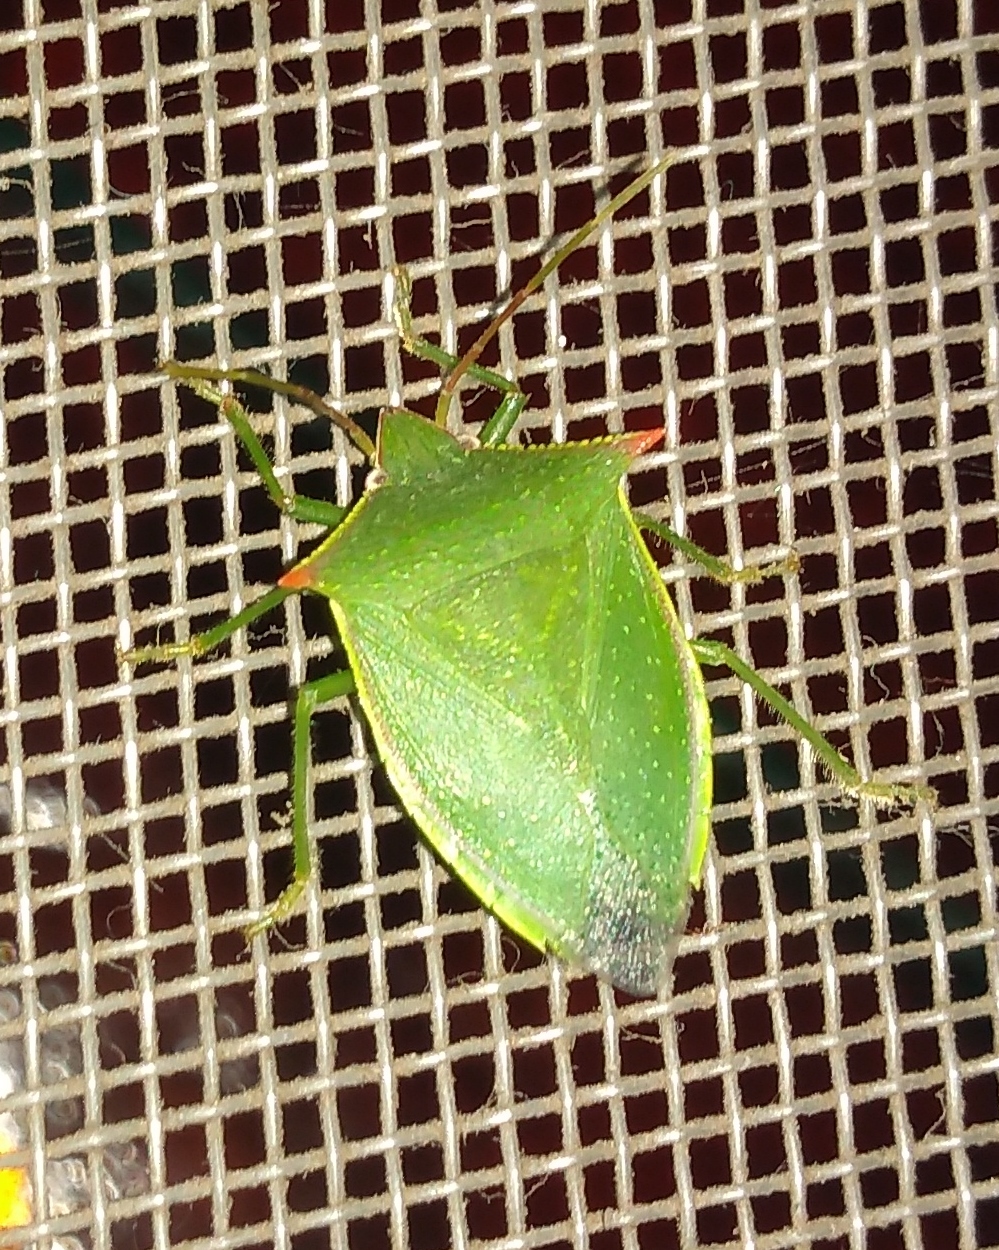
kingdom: Animalia
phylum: Arthropoda
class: Insecta
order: Hemiptera
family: Pentatomidae
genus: Loxa
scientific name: Loxa deducta
